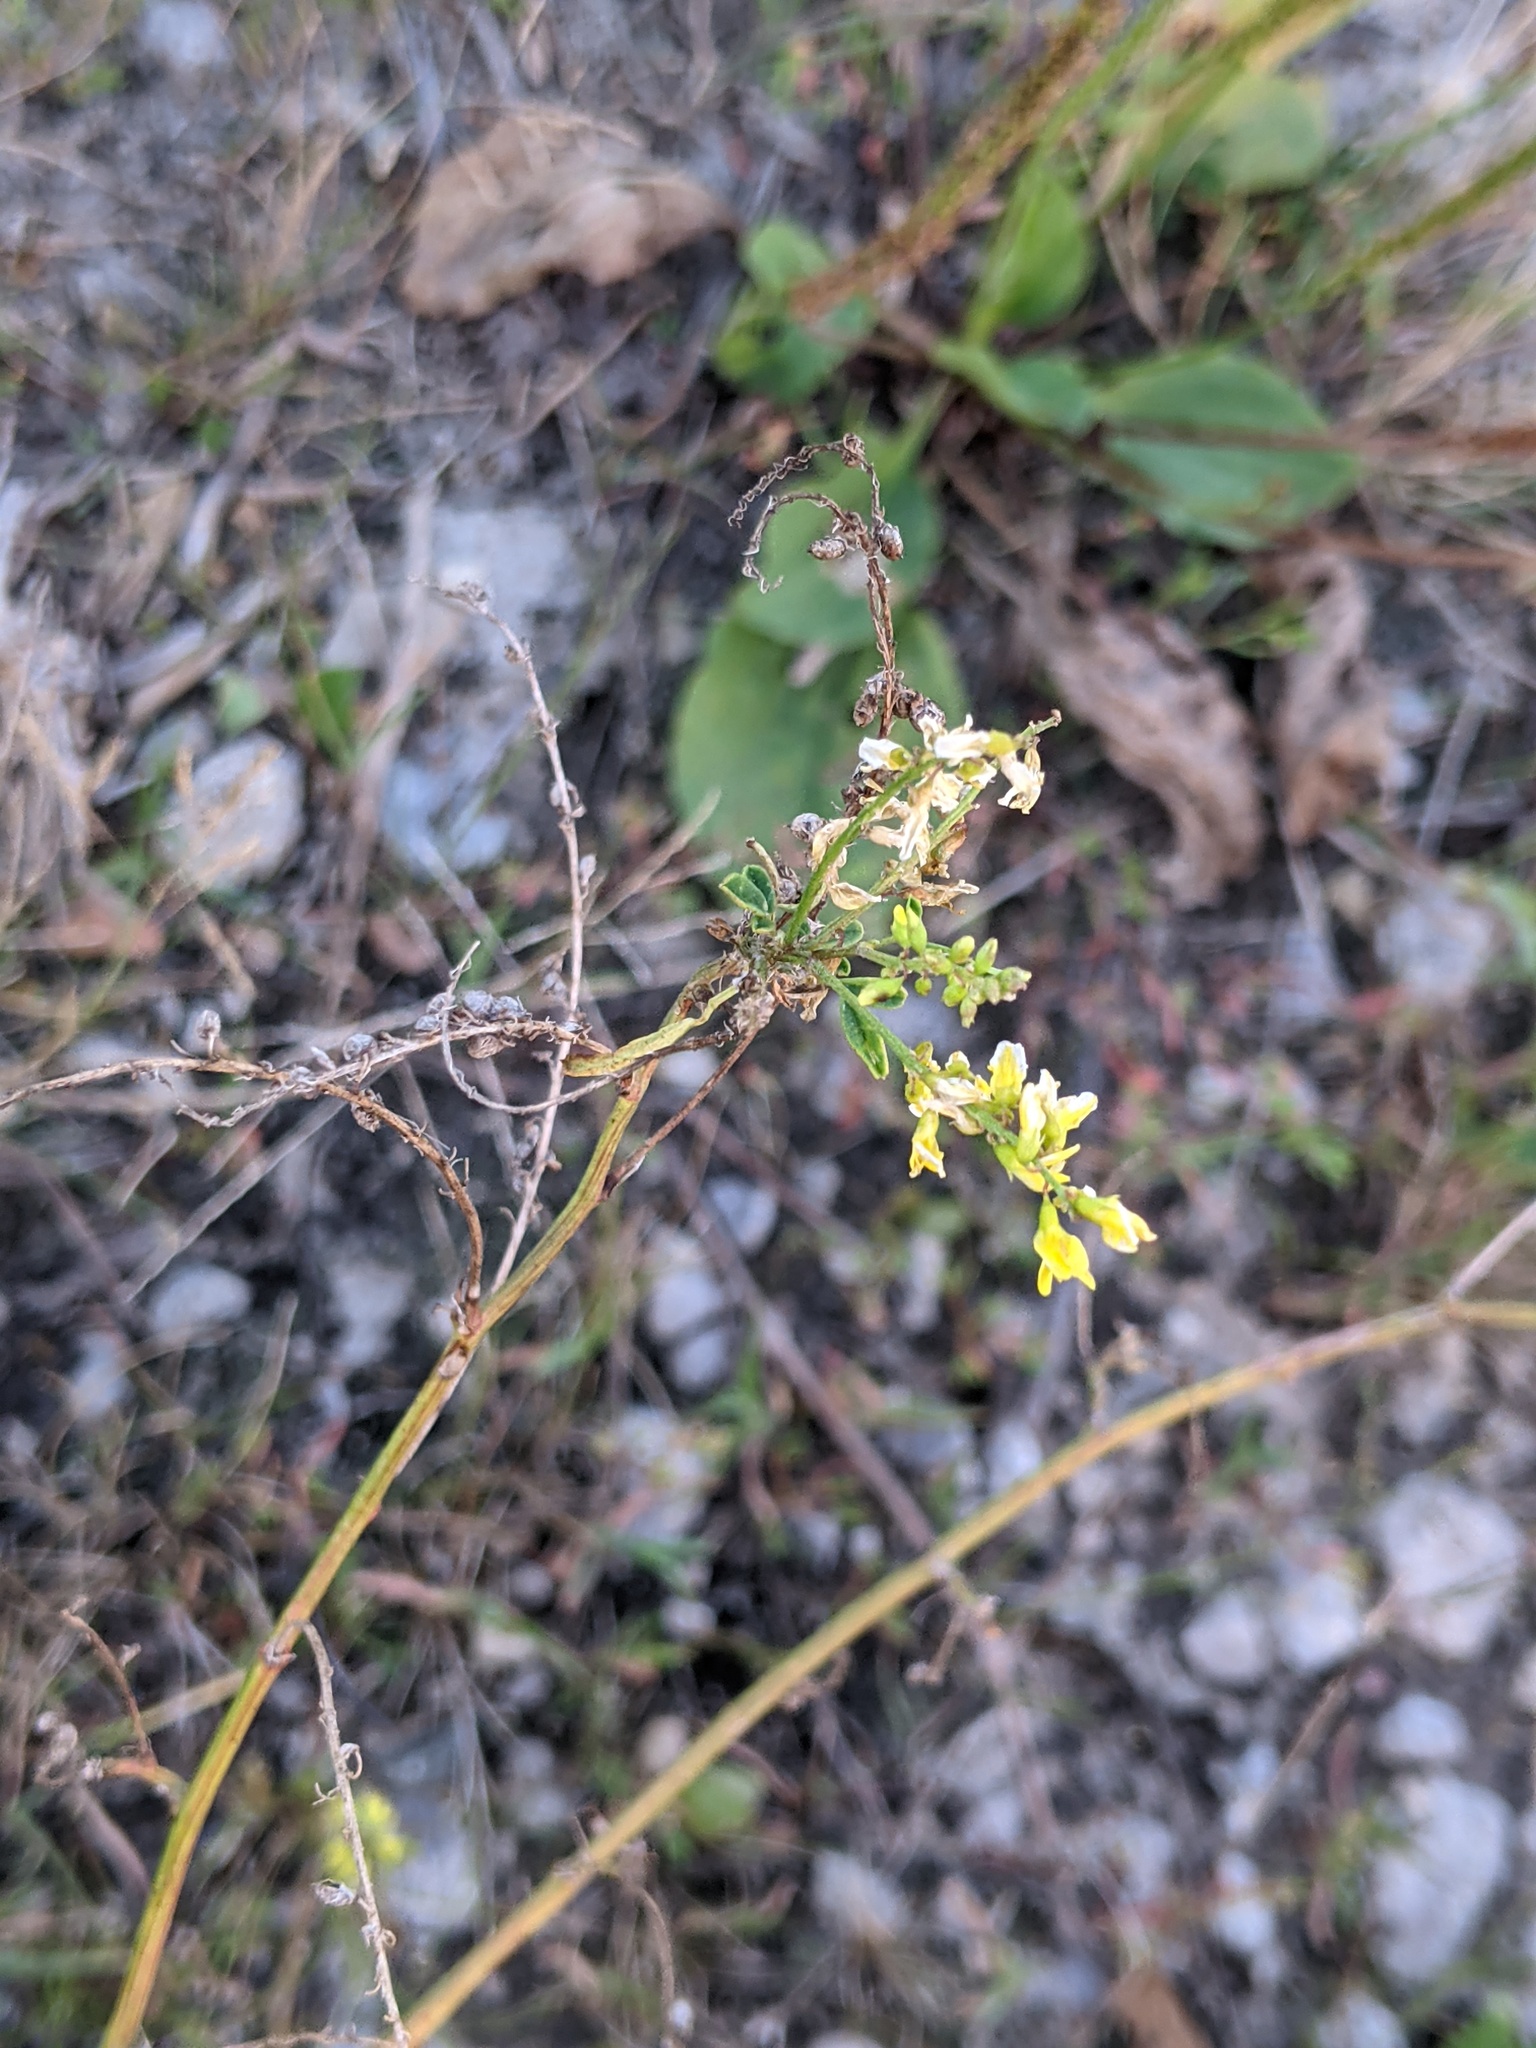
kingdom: Plantae
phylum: Tracheophyta
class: Magnoliopsida
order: Fabales
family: Fabaceae
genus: Melilotus
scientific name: Melilotus officinalis
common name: Sweetclover
